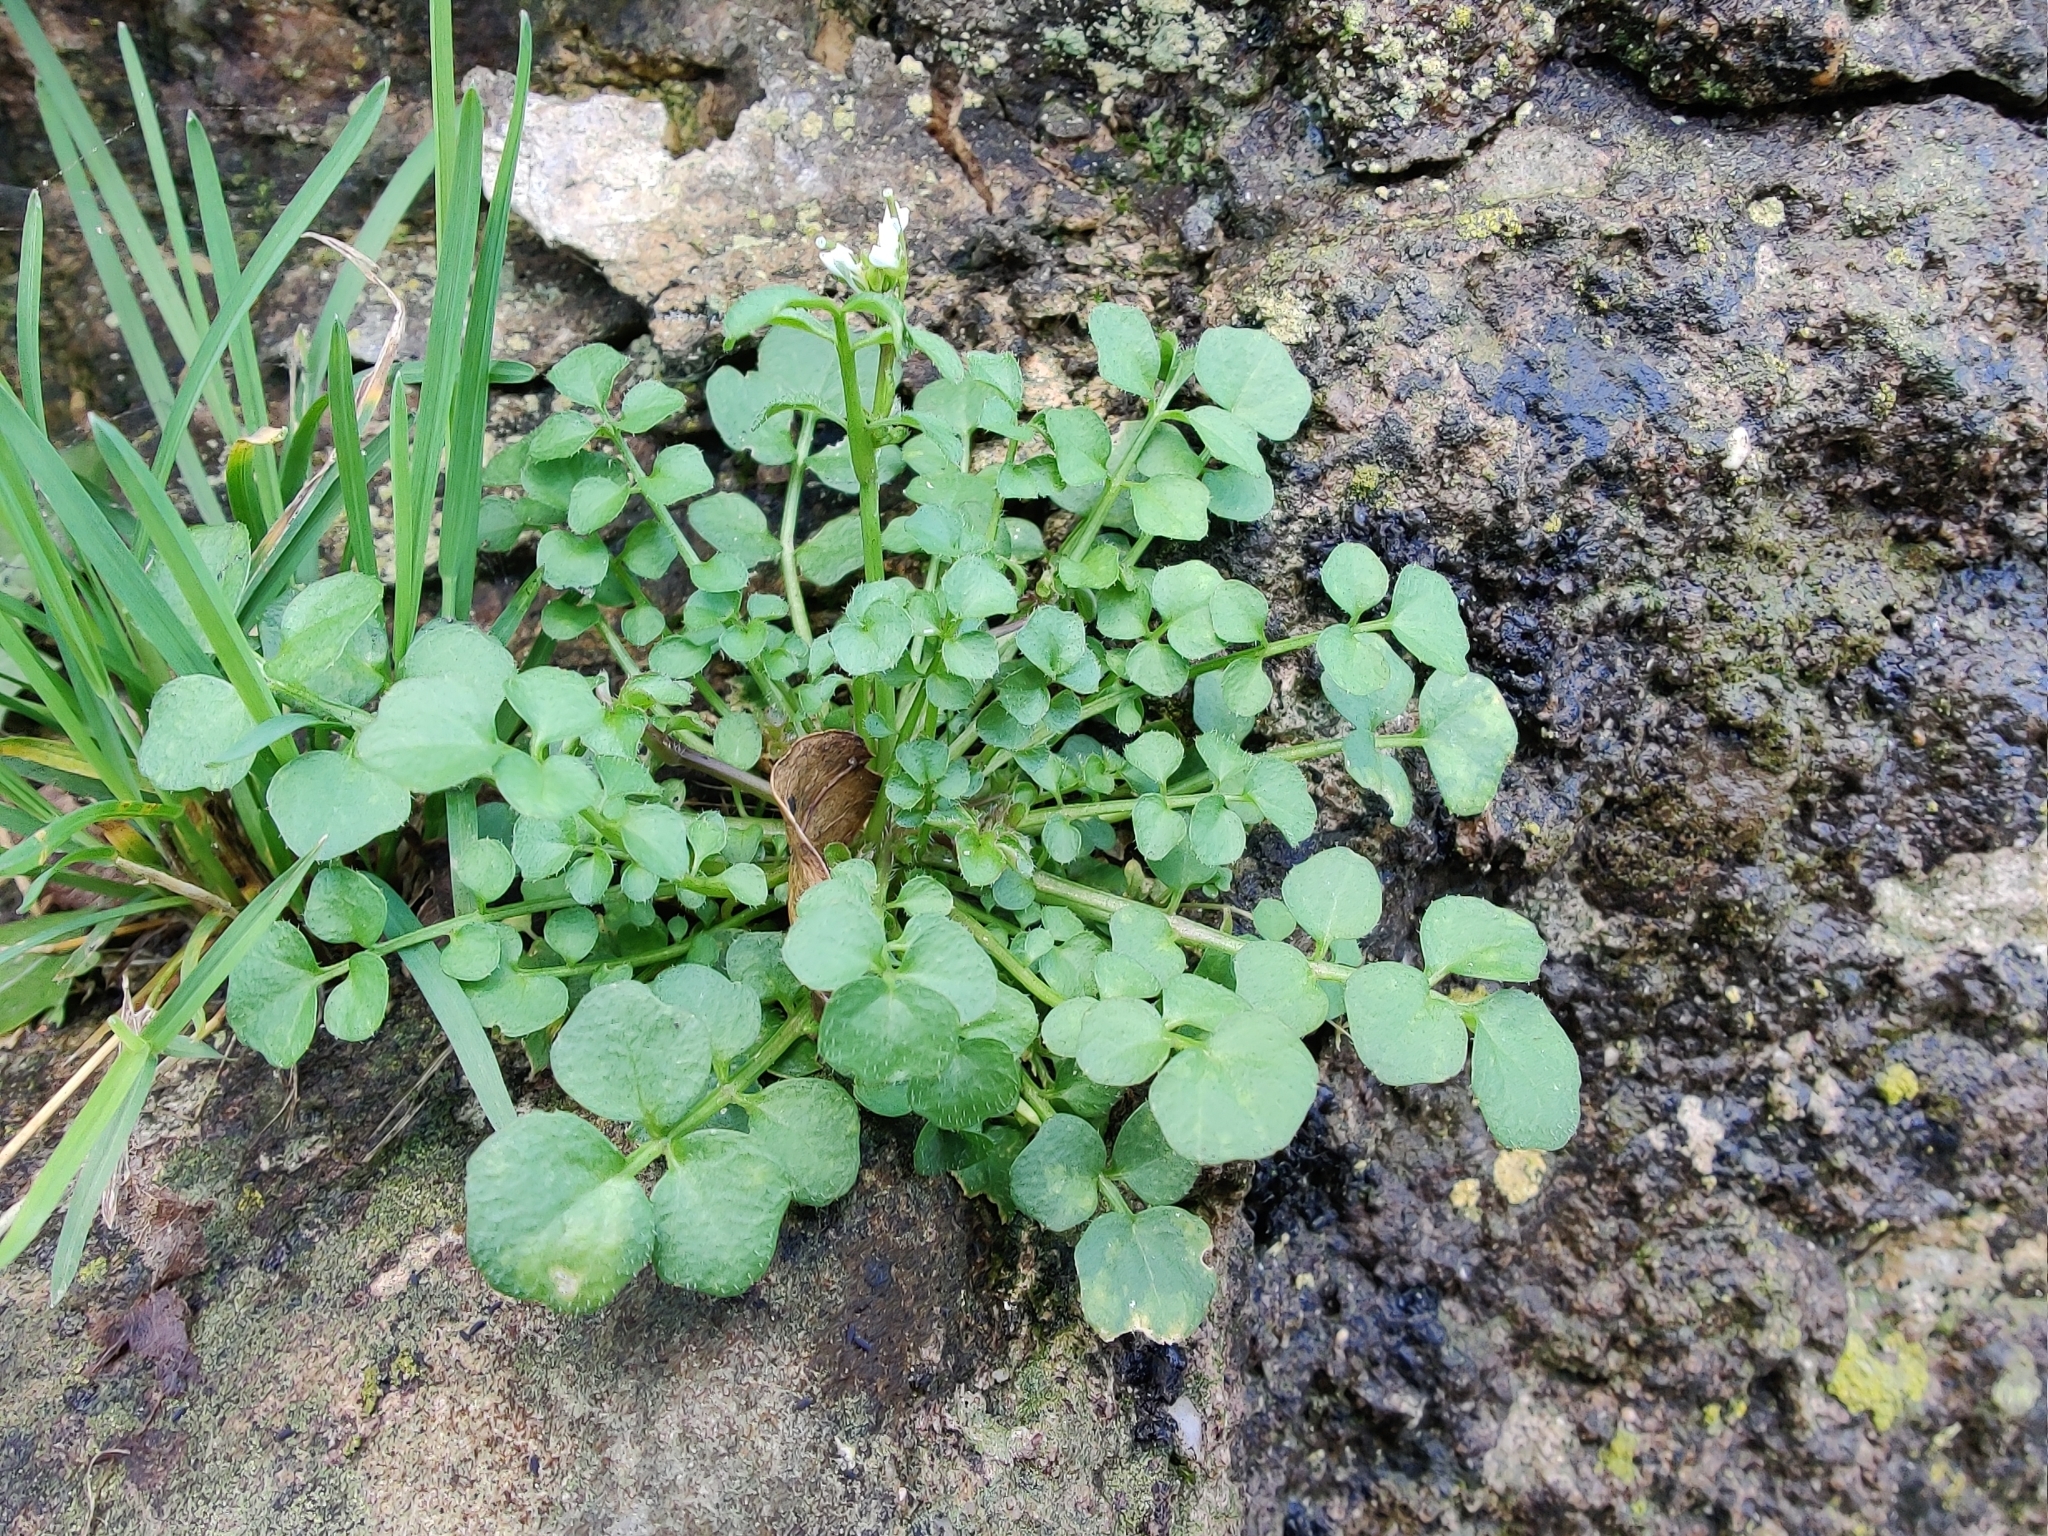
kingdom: Plantae
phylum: Tracheophyta
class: Magnoliopsida
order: Brassicales
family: Brassicaceae
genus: Cardamine
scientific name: Cardamine hirsuta
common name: Hairy bittercress
